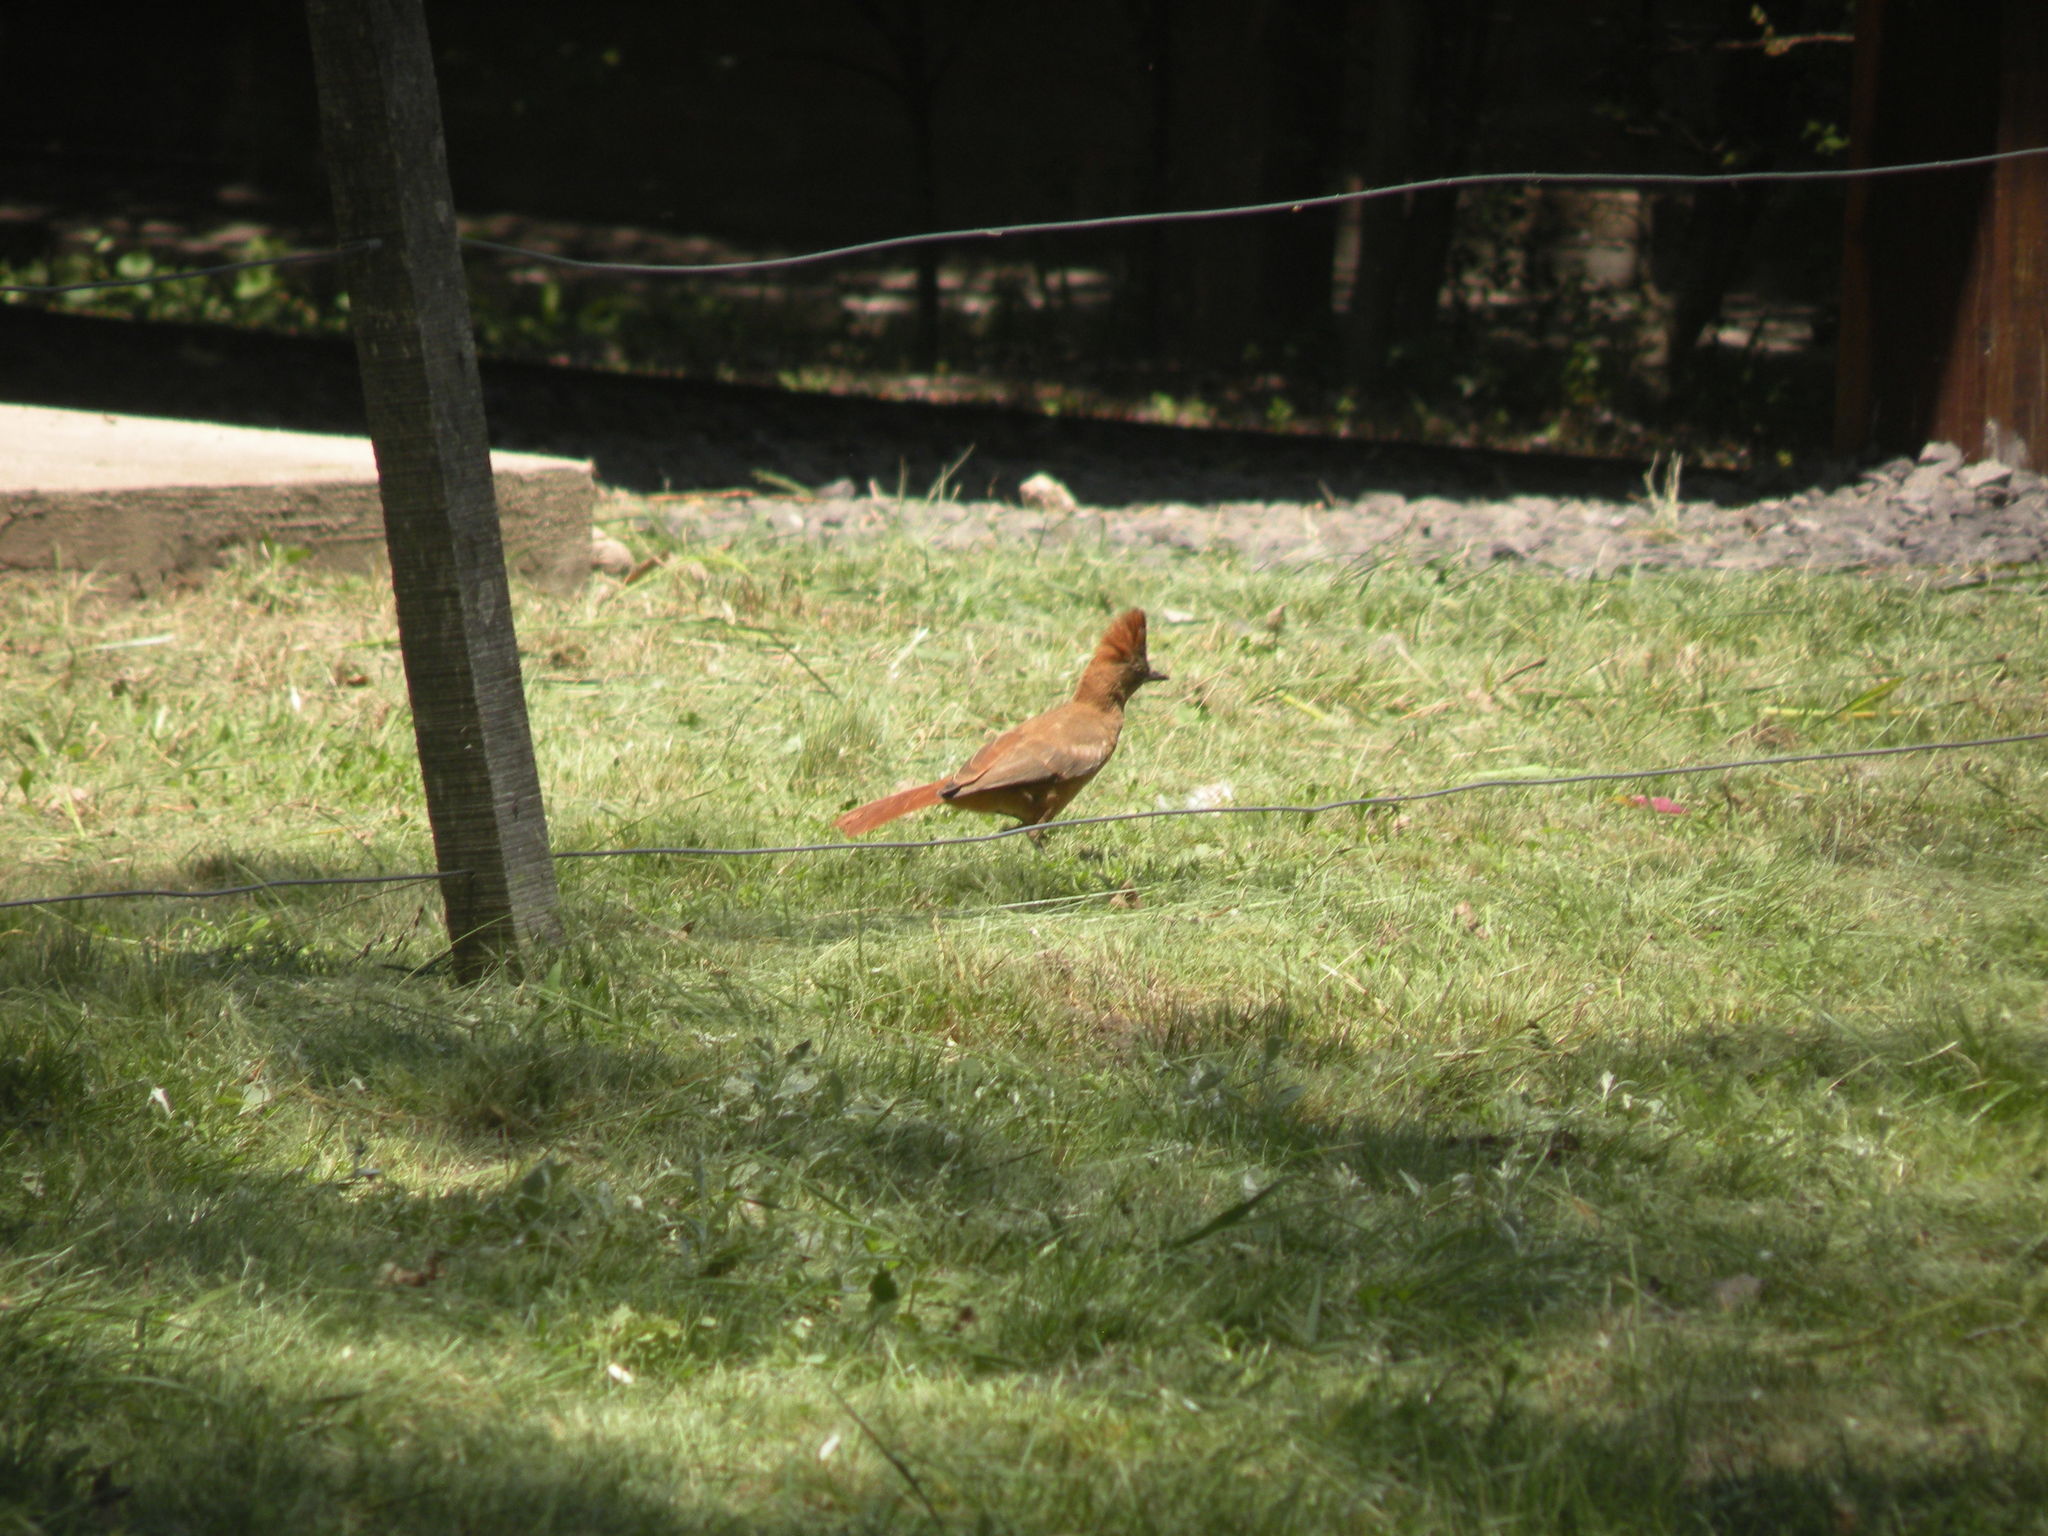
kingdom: Animalia
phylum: Chordata
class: Aves
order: Passeriformes
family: Furnariidae
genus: Pseudoseisura
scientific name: Pseudoseisura lophotes
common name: Brown cacholote
